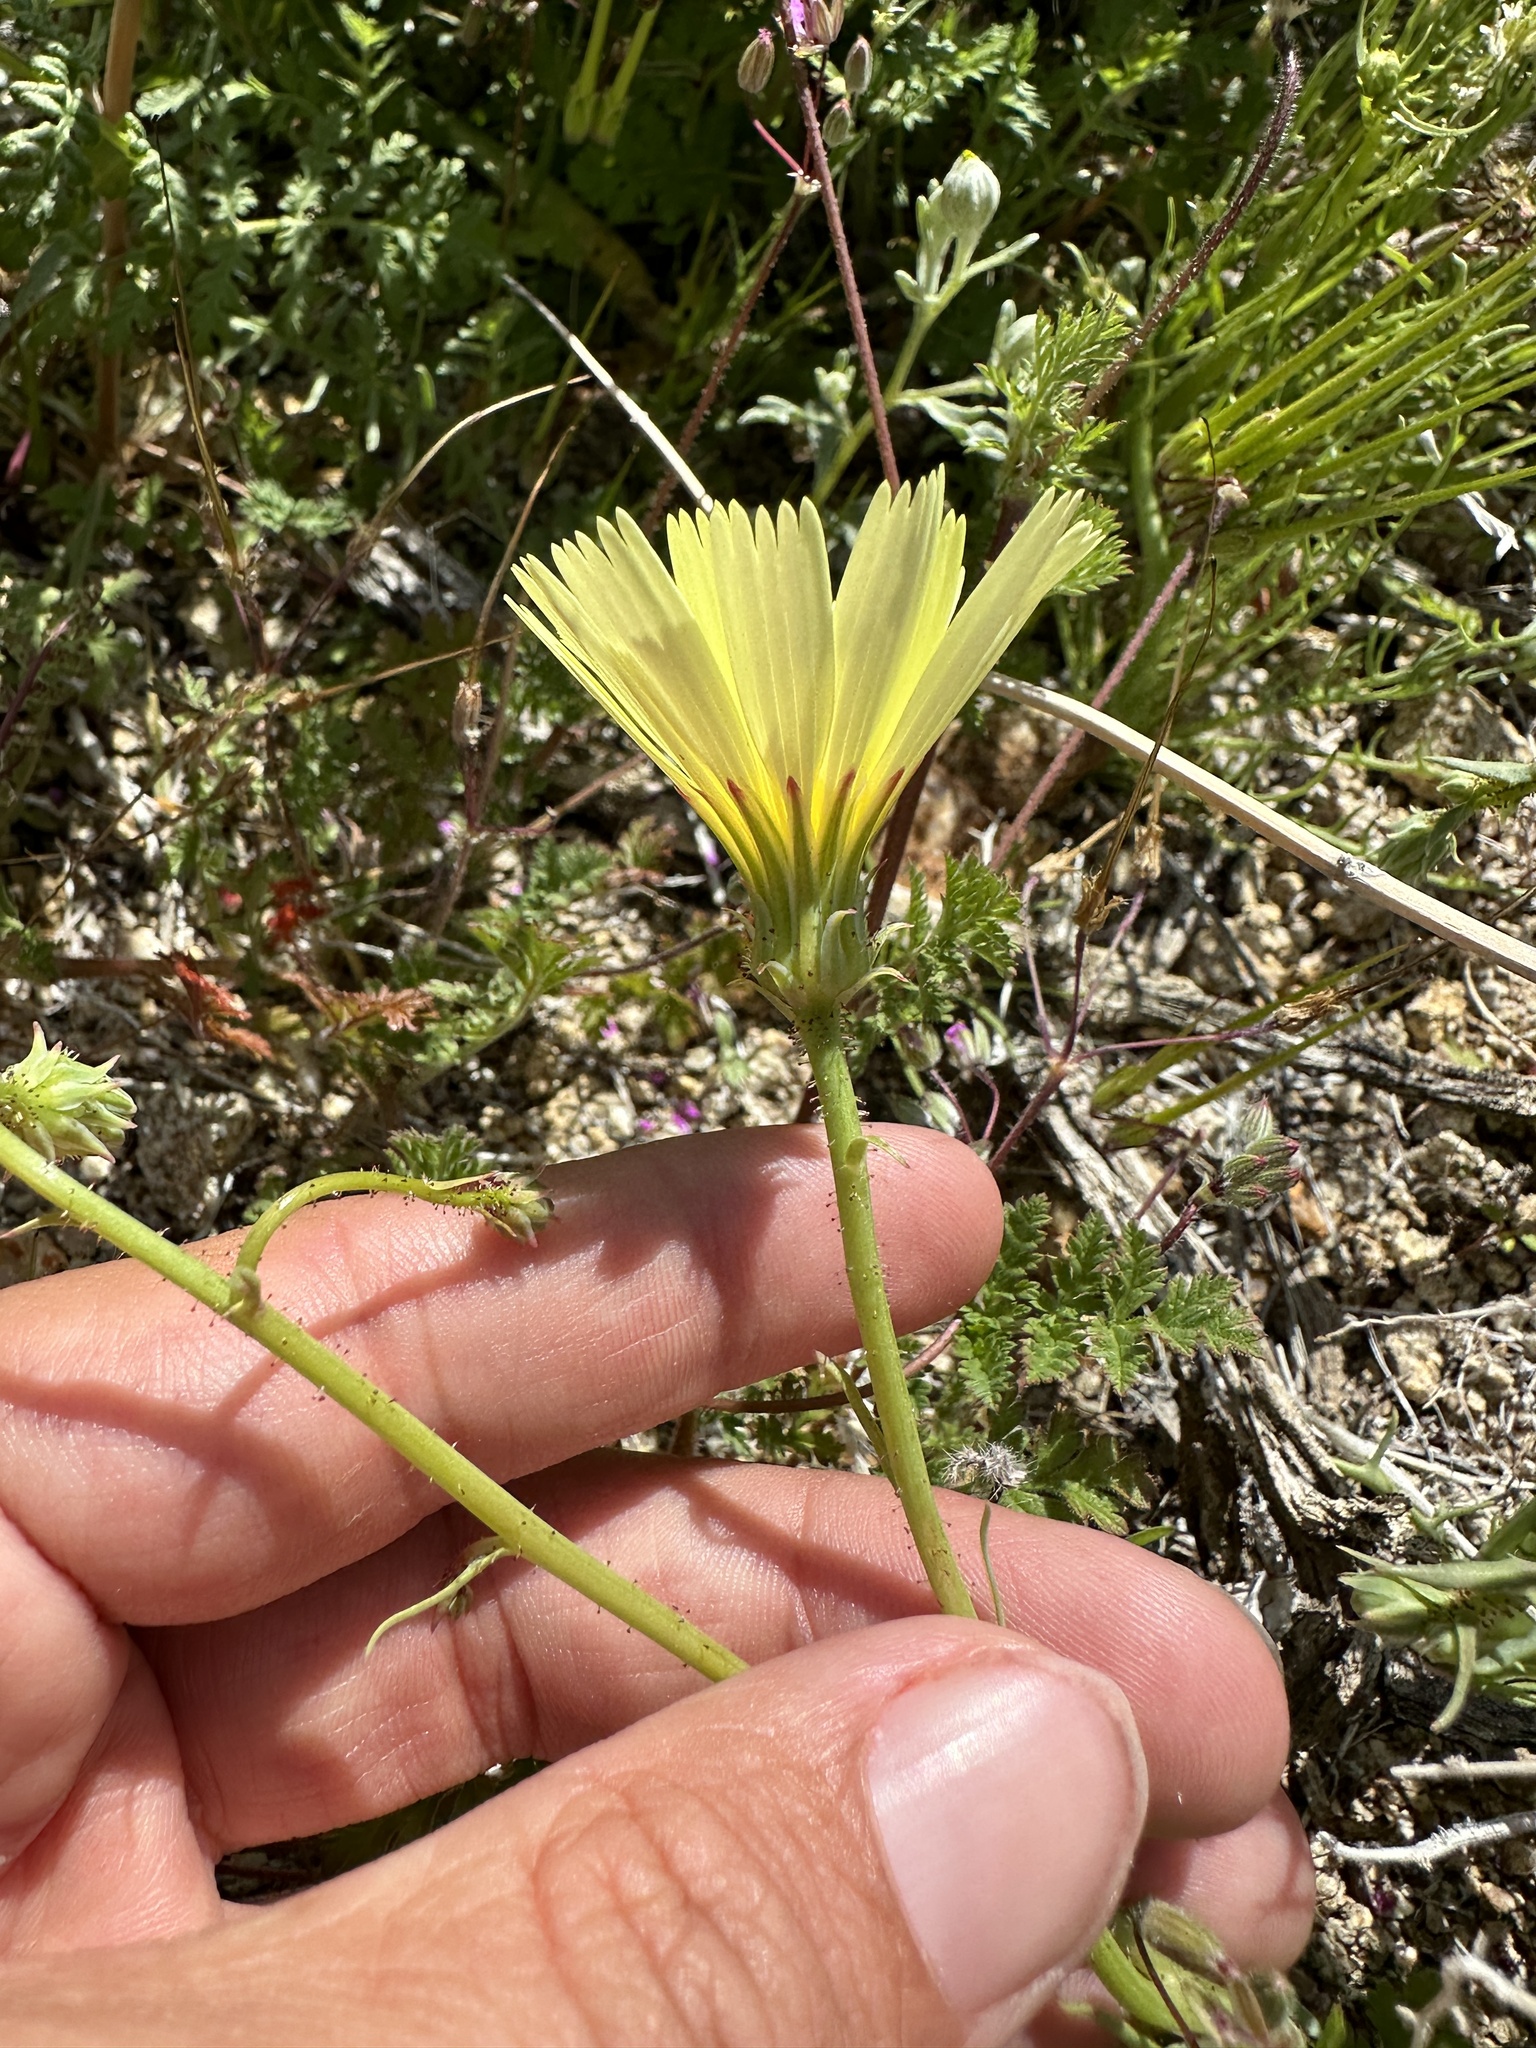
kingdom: Plantae
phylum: Tracheophyta
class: Magnoliopsida
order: Asterales
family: Asteraceae
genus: Calycoseris
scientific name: Calycoseris parryi
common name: Yellow tackstem
